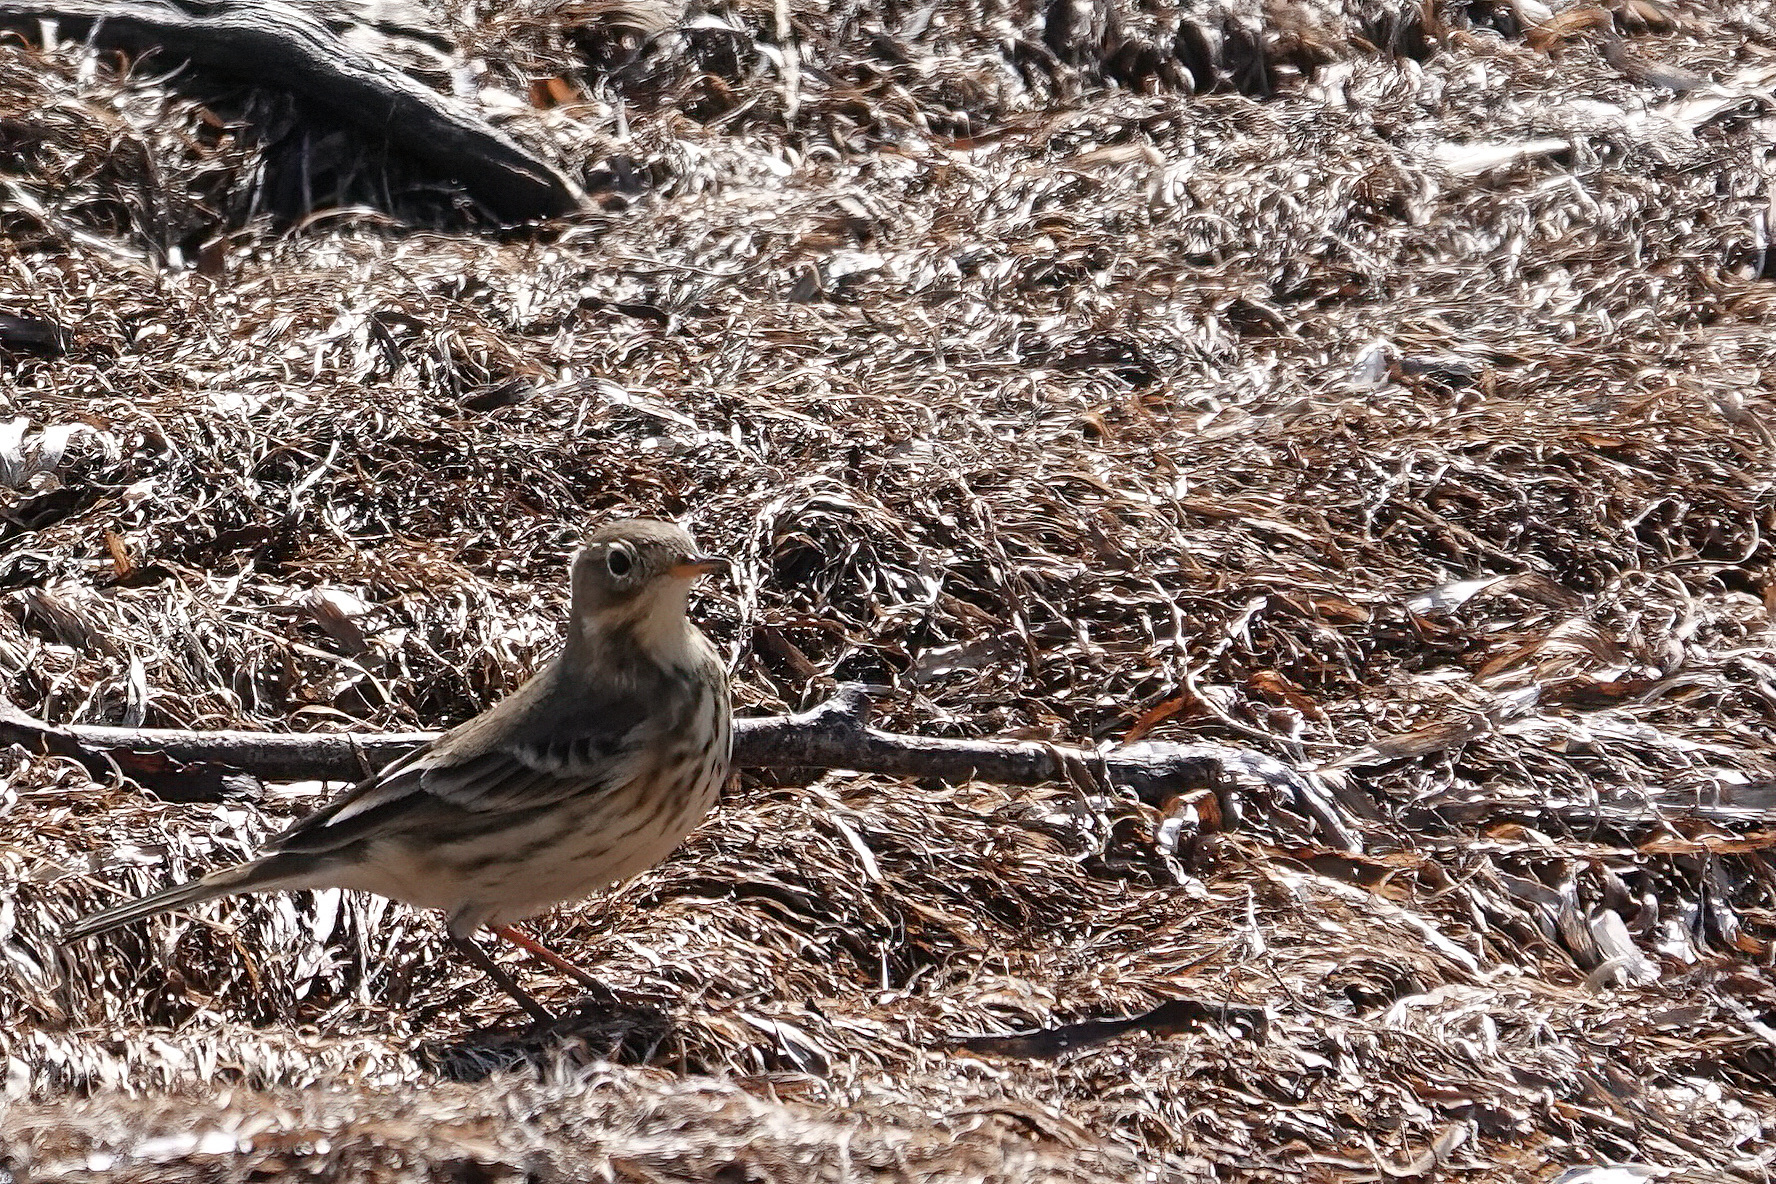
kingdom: Animalia
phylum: Chordata
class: Aves
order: Passeriformes
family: Motacillidae
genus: Anthus
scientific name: Anthus rubescens
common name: Buff-bellied pipit
